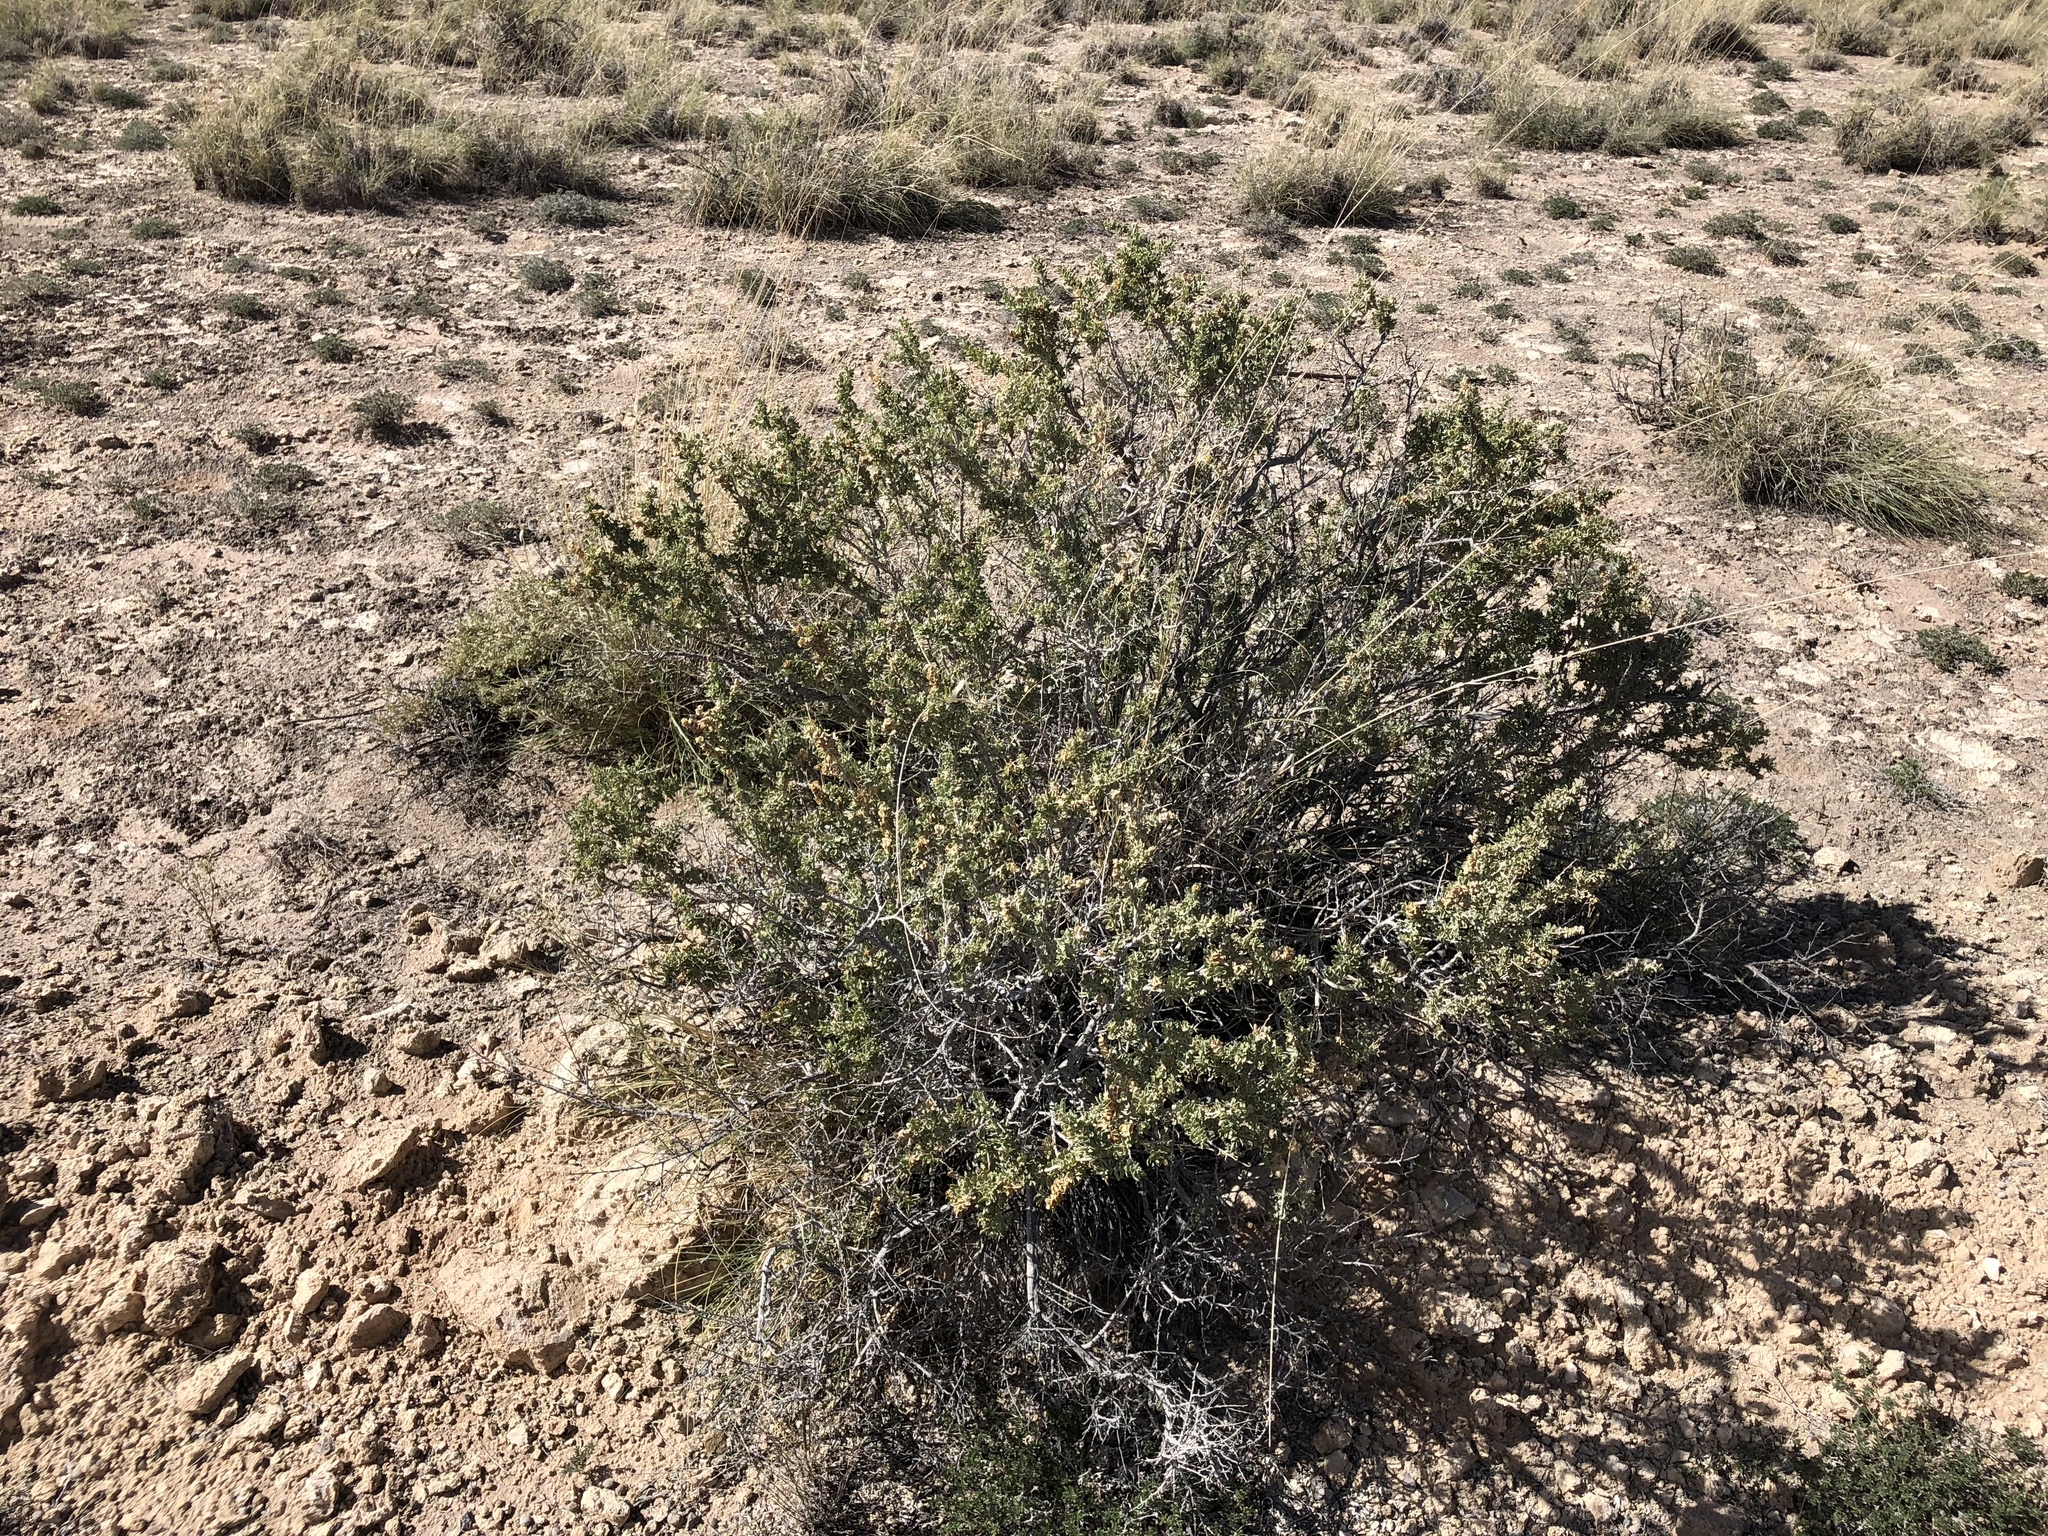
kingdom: Plantae
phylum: Tracheophyta
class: Magnoliopsida
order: Caryophyllales
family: Amaranthaceae
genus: Atriplex
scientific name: Atriplex canescens
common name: Four-wing saltbush
